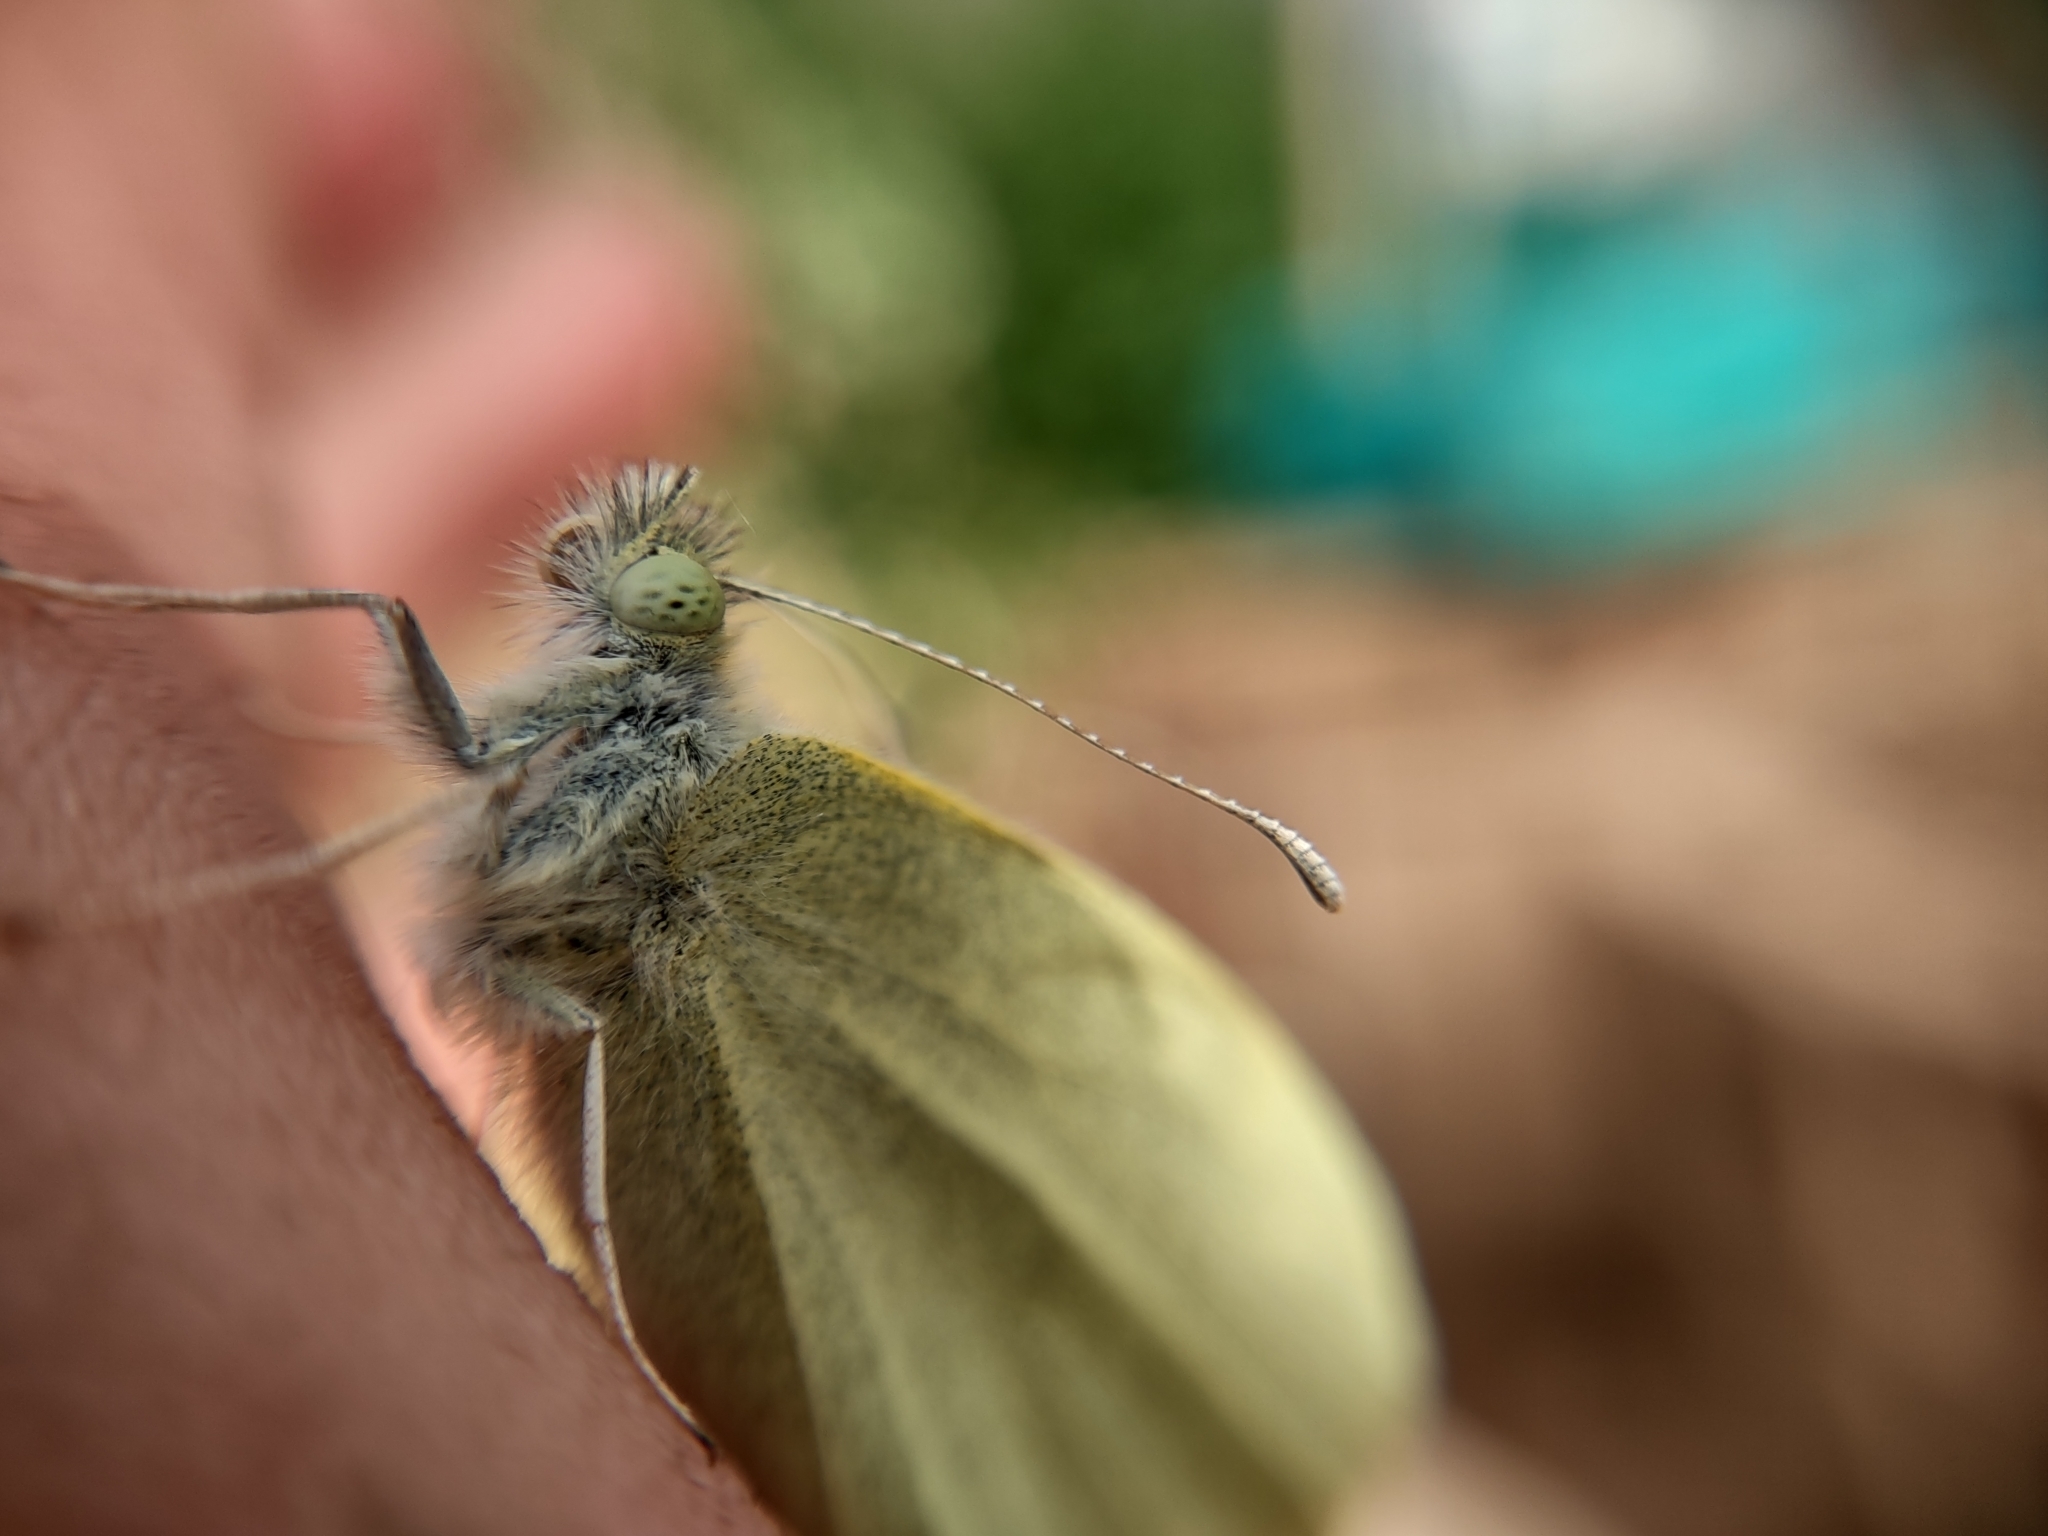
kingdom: Animalia
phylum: Arthropoda
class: Insecta
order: Lepidoptera
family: Pieridae
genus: Pieris
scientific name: Pieris rapae
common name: Small white
